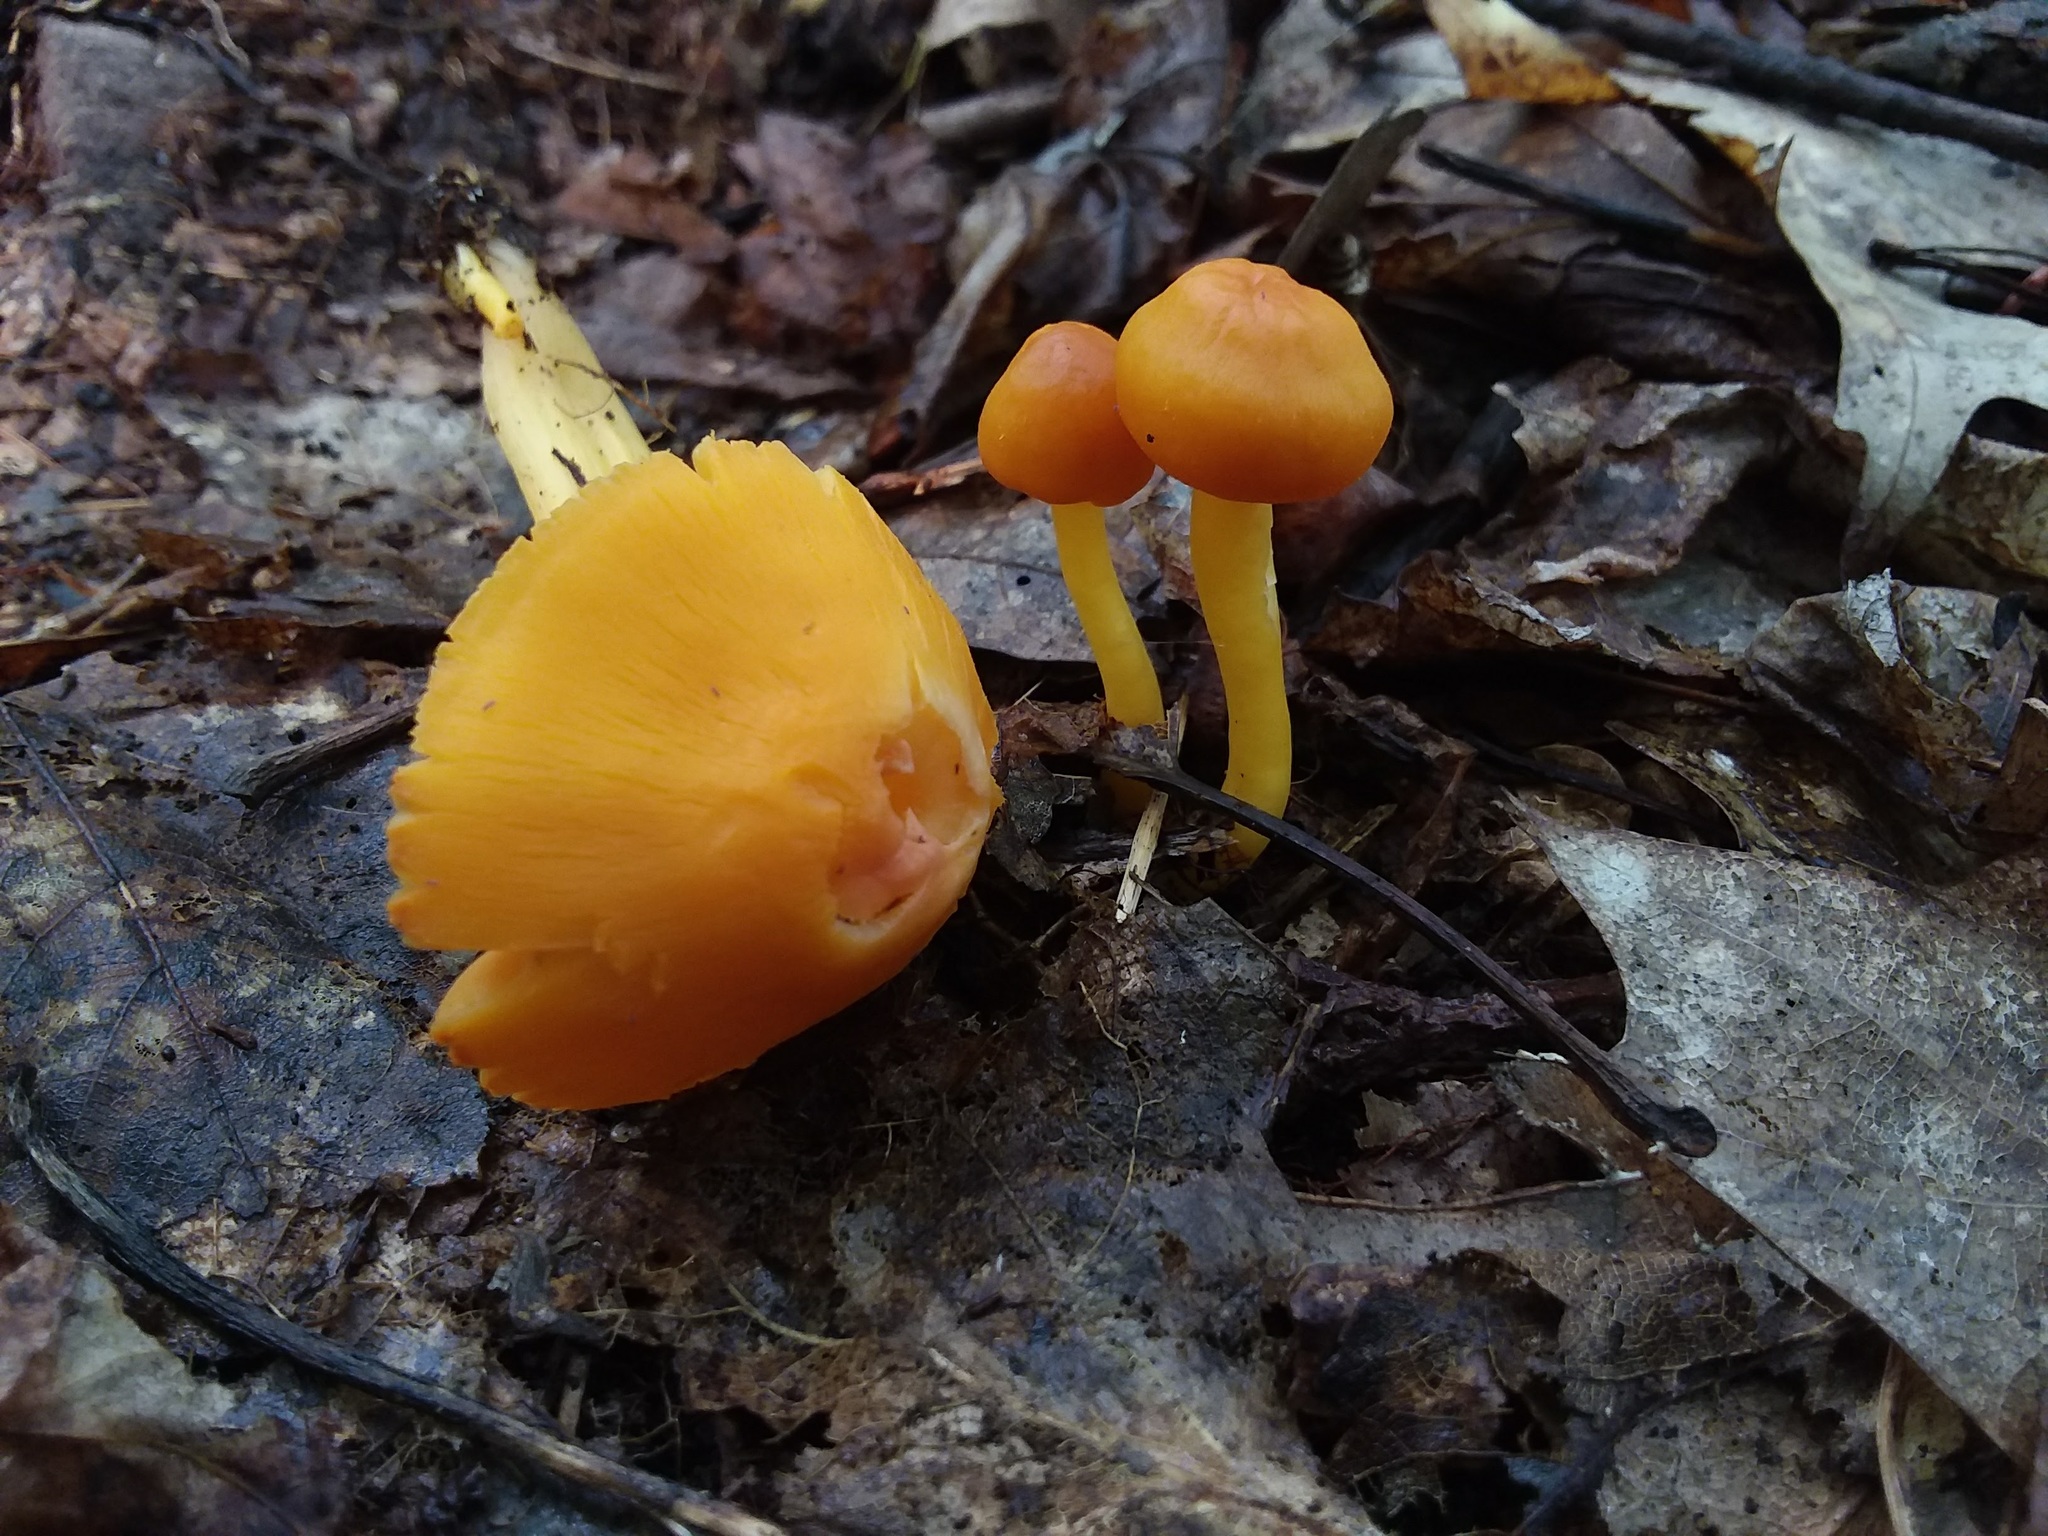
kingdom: Fungi
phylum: Basidiomycota
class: Agaricomycetes
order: Agaricales
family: Hygrophoraceae
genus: Humidicutis
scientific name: Humidicutis marginata
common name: Orange gilled waxcap
